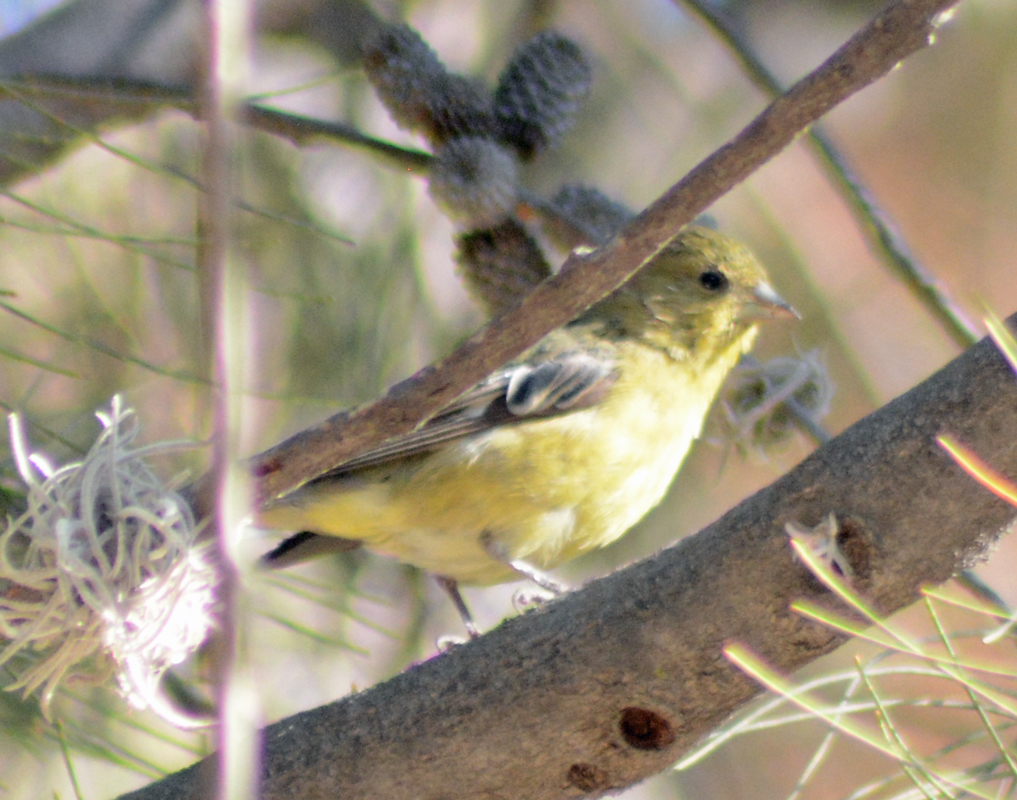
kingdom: Animalia
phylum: Chordata
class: Aves
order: Passeriformes
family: Fringillidae
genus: Spinus
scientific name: Spinus psaltria
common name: Lesser goldfinch
